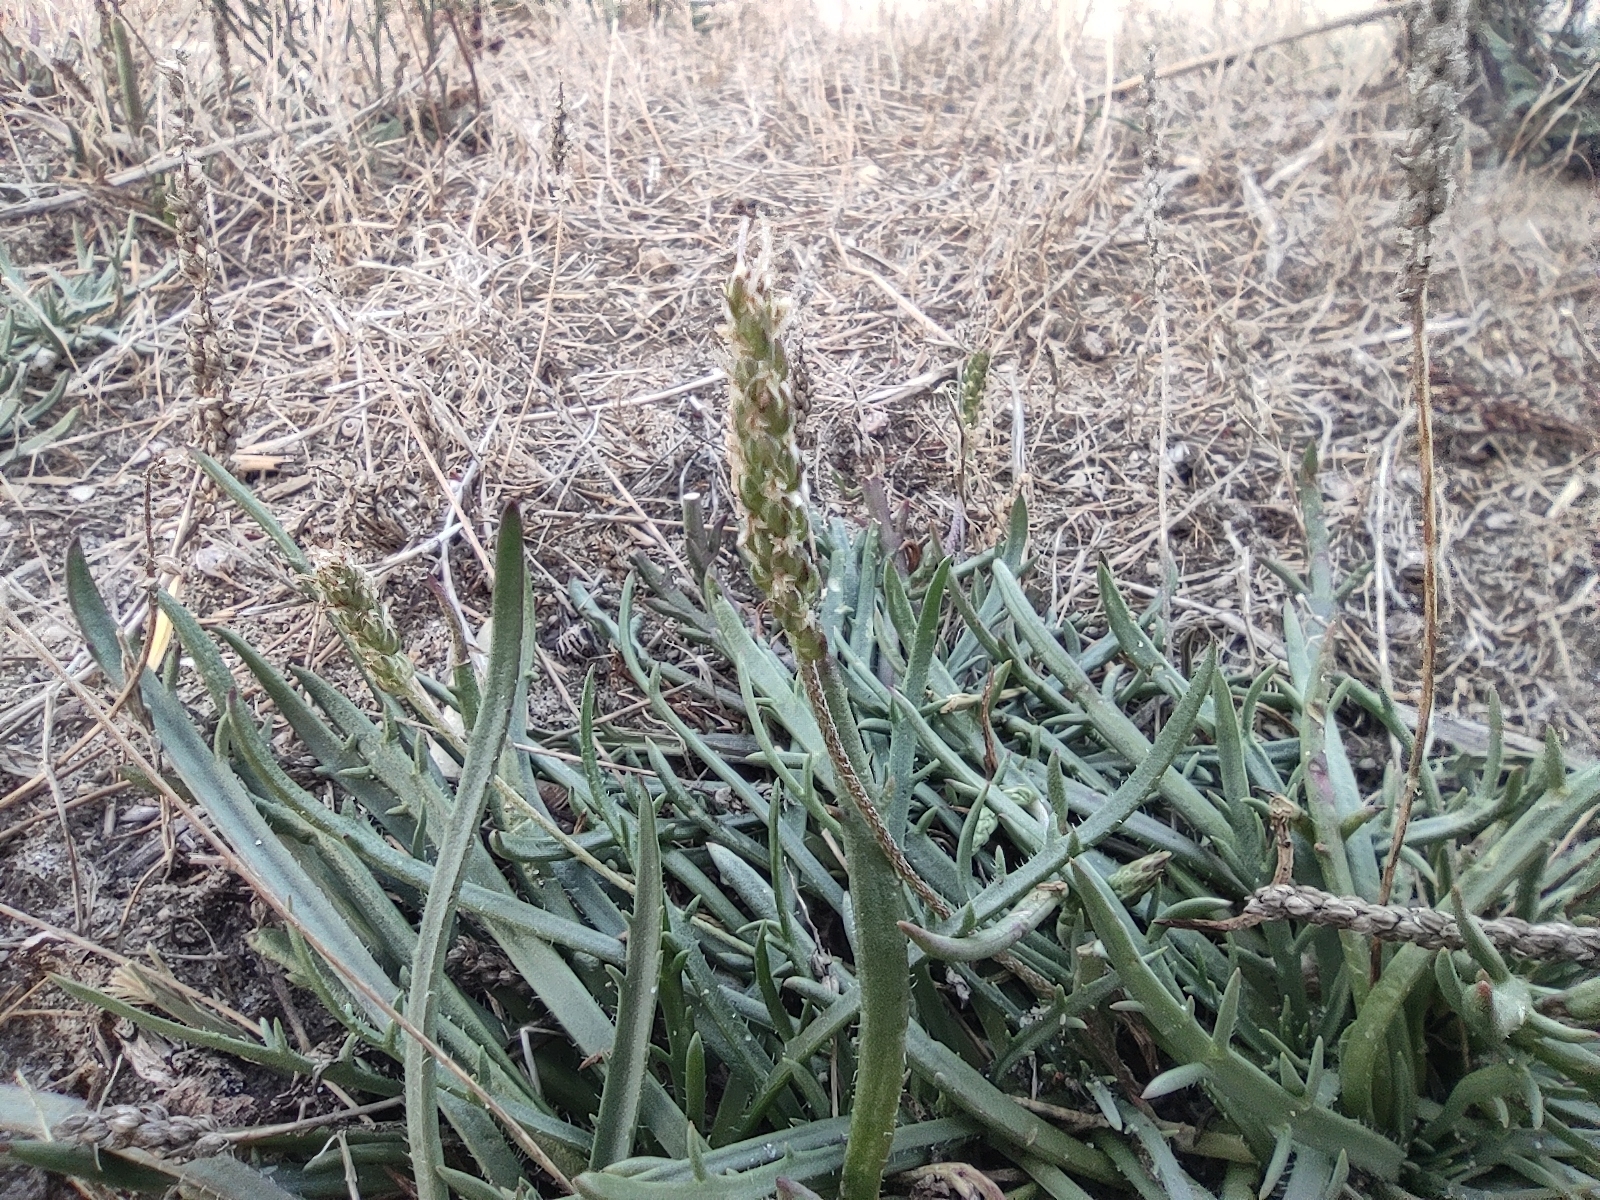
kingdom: Plantae
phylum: Tracheophyta
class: Magnoliopsida
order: Lamiales
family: Plantaginaceae
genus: Plantago
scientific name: Plantago coronopus
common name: Buck's-horn plantain
